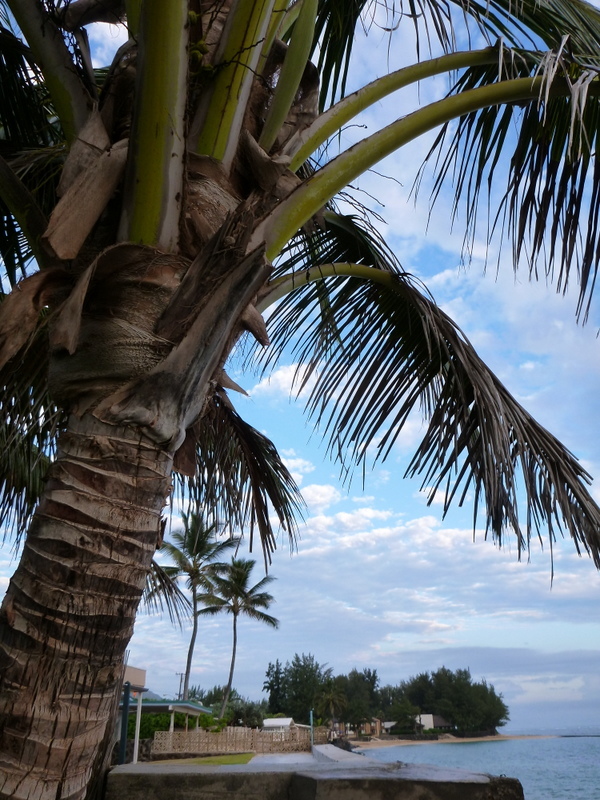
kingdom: Plantae
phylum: Tracheophyta
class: Liliopsida
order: Arecales
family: Arecaceae
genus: Cocos
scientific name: Cocos nucifera
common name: Coconut palm
